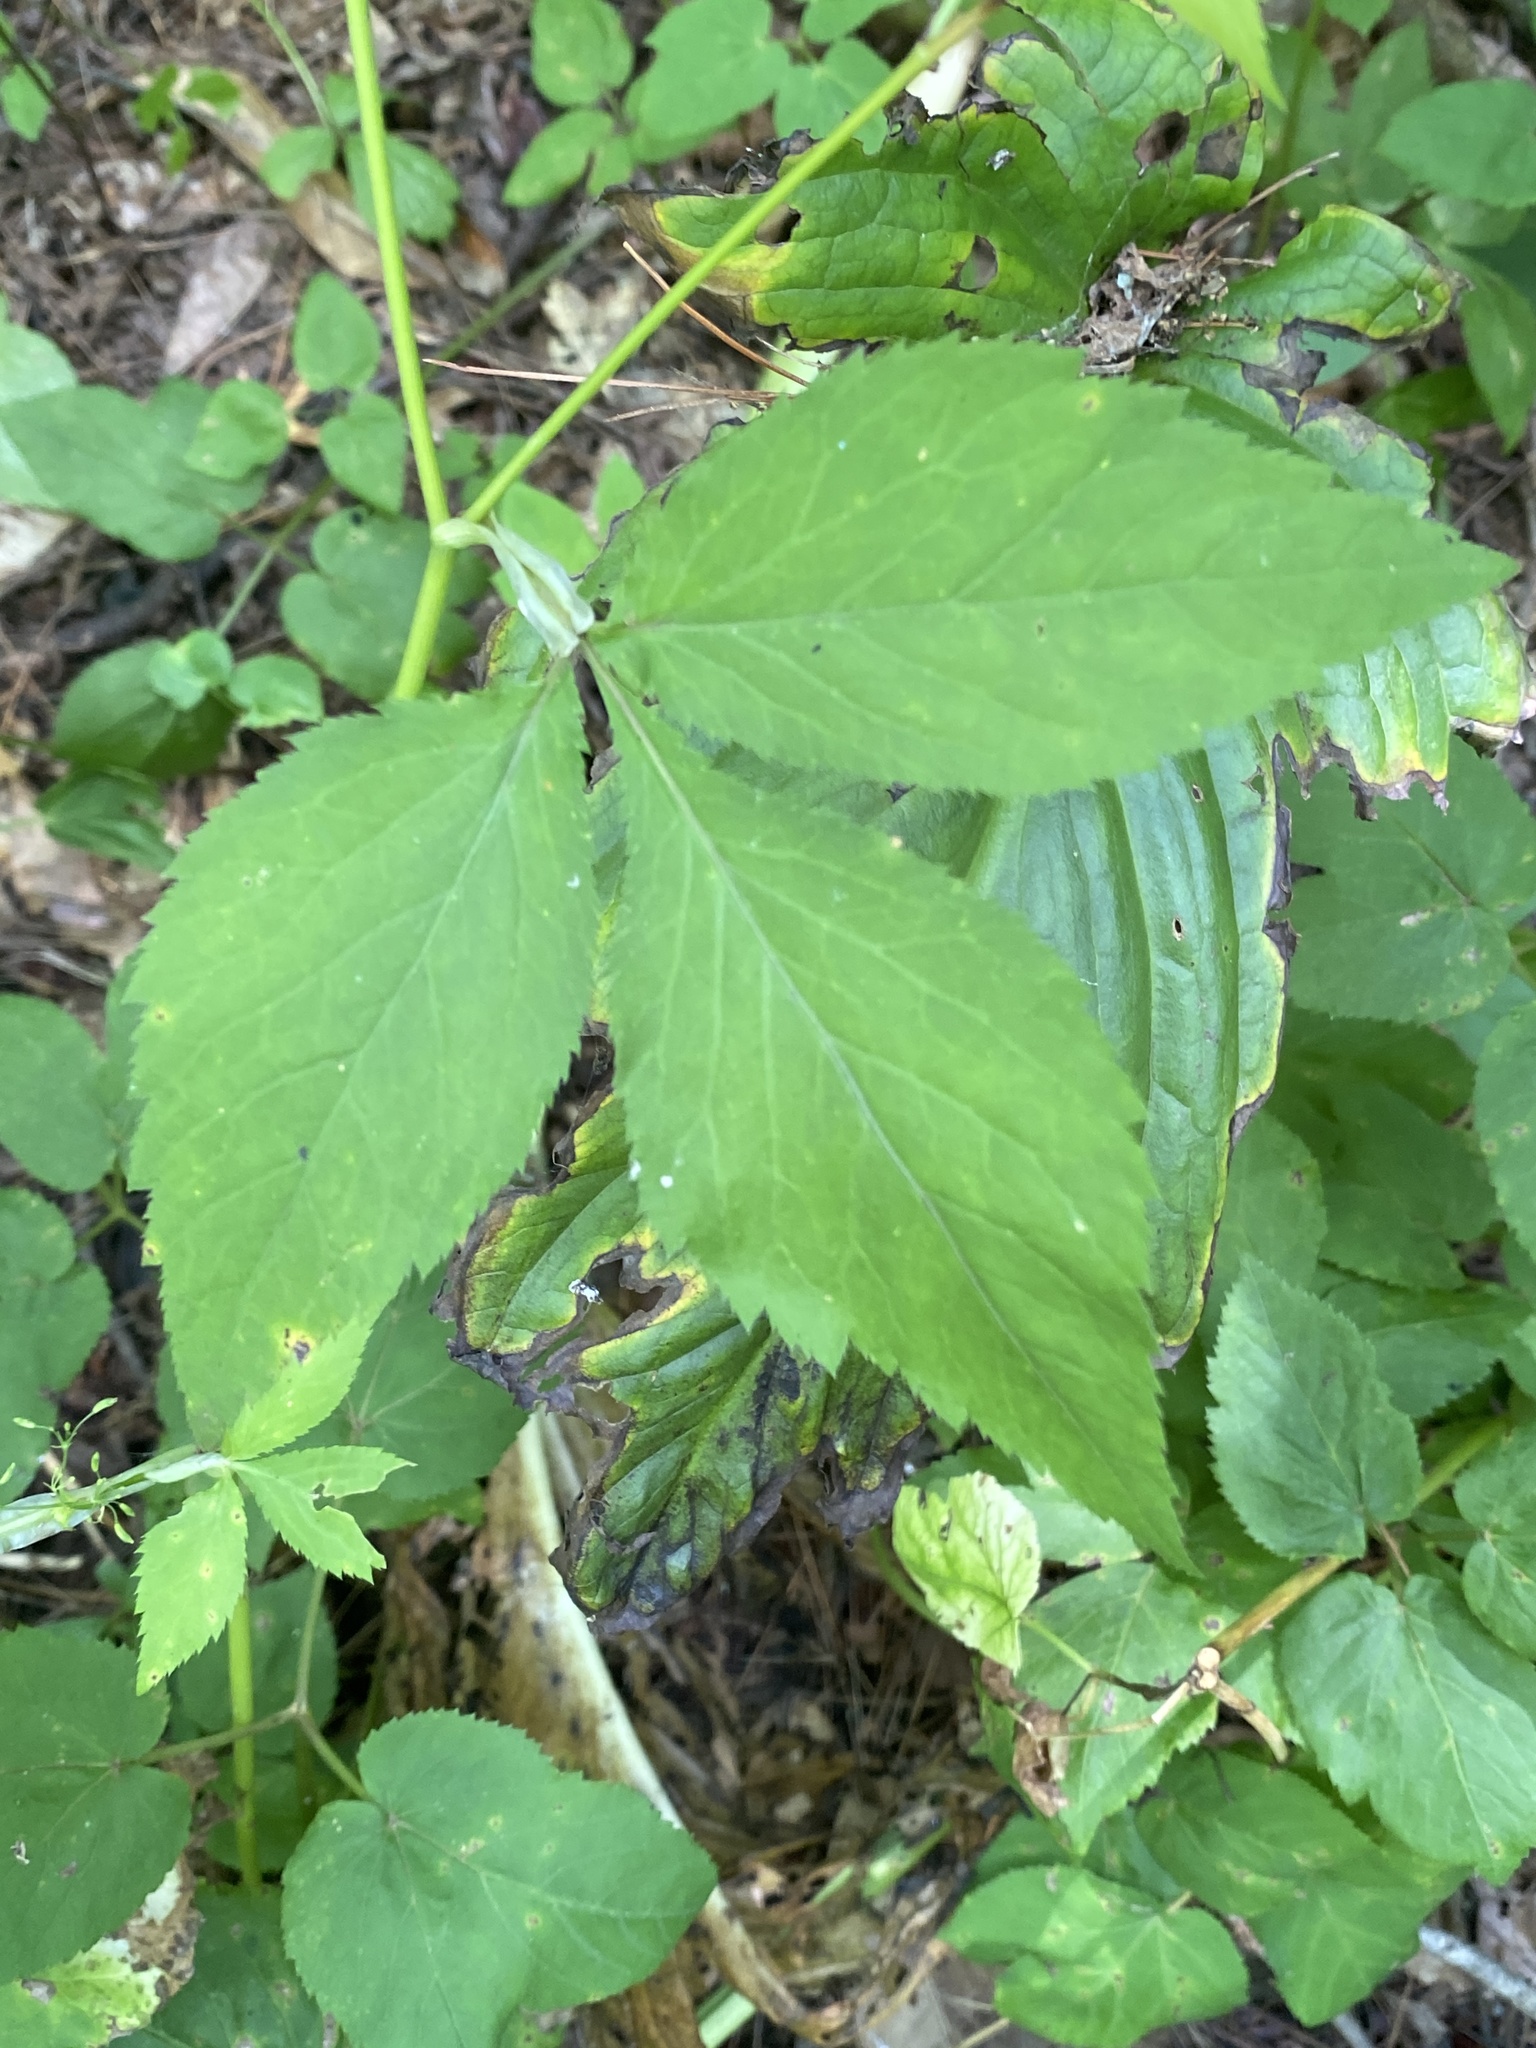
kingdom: Plantae
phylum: Tracheophyta
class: Magnoliopsida
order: Apiales
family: Apiaceae
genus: Cryptotaenia
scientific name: Cryptotaenia canadensis
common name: Honewort
